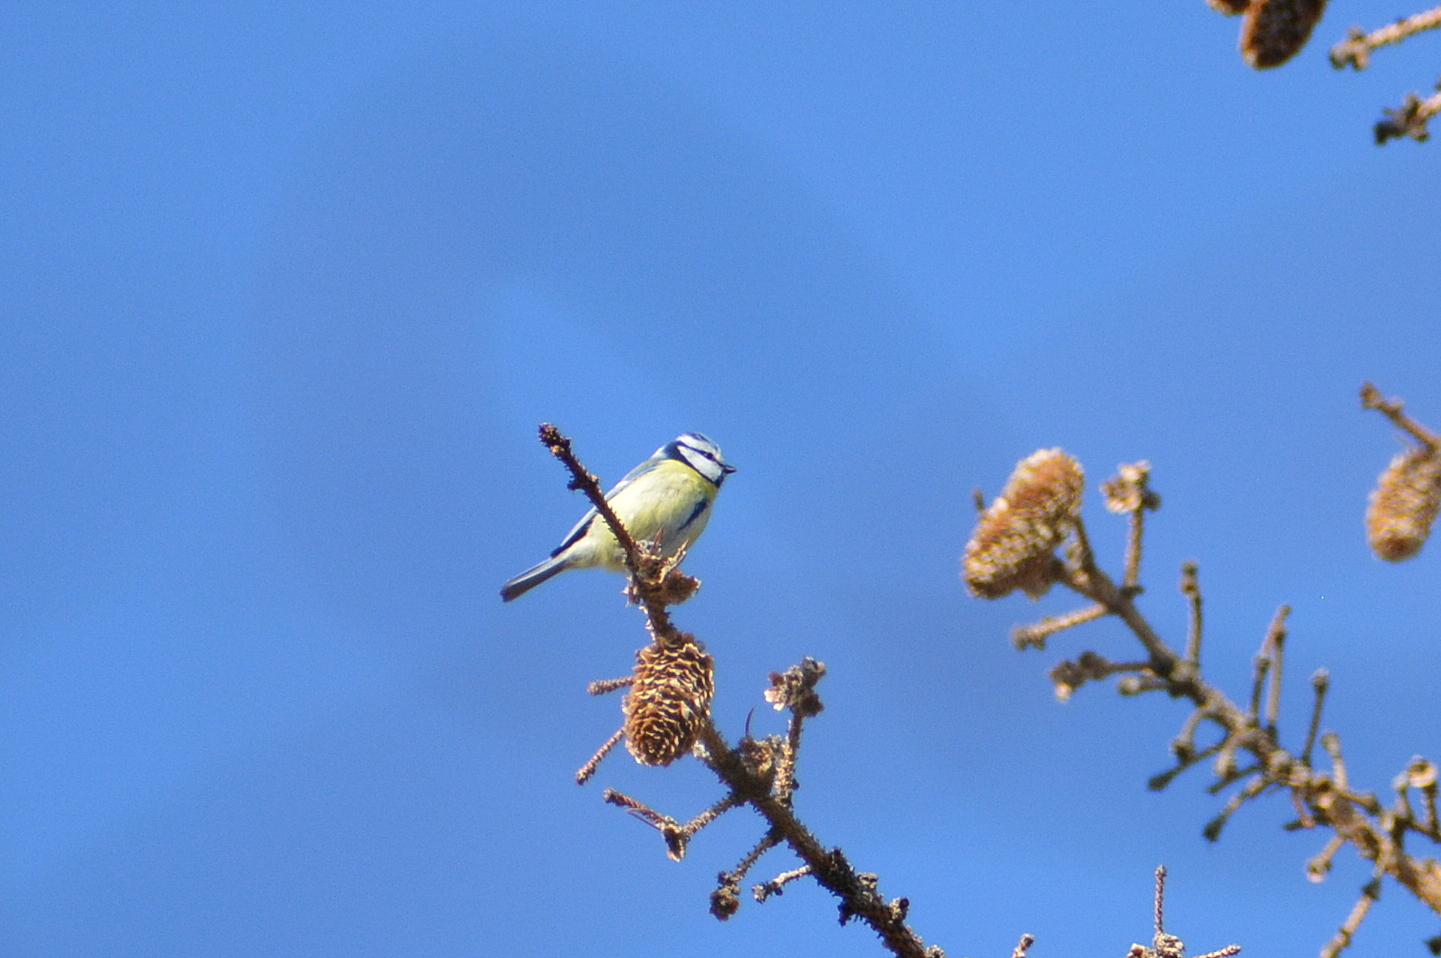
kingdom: Animalia
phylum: Chordata
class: Aves
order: Passeriformes
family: Paridae
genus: Cyanistes
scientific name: Cyanistes caeruleus
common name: Eurasian blue tit
